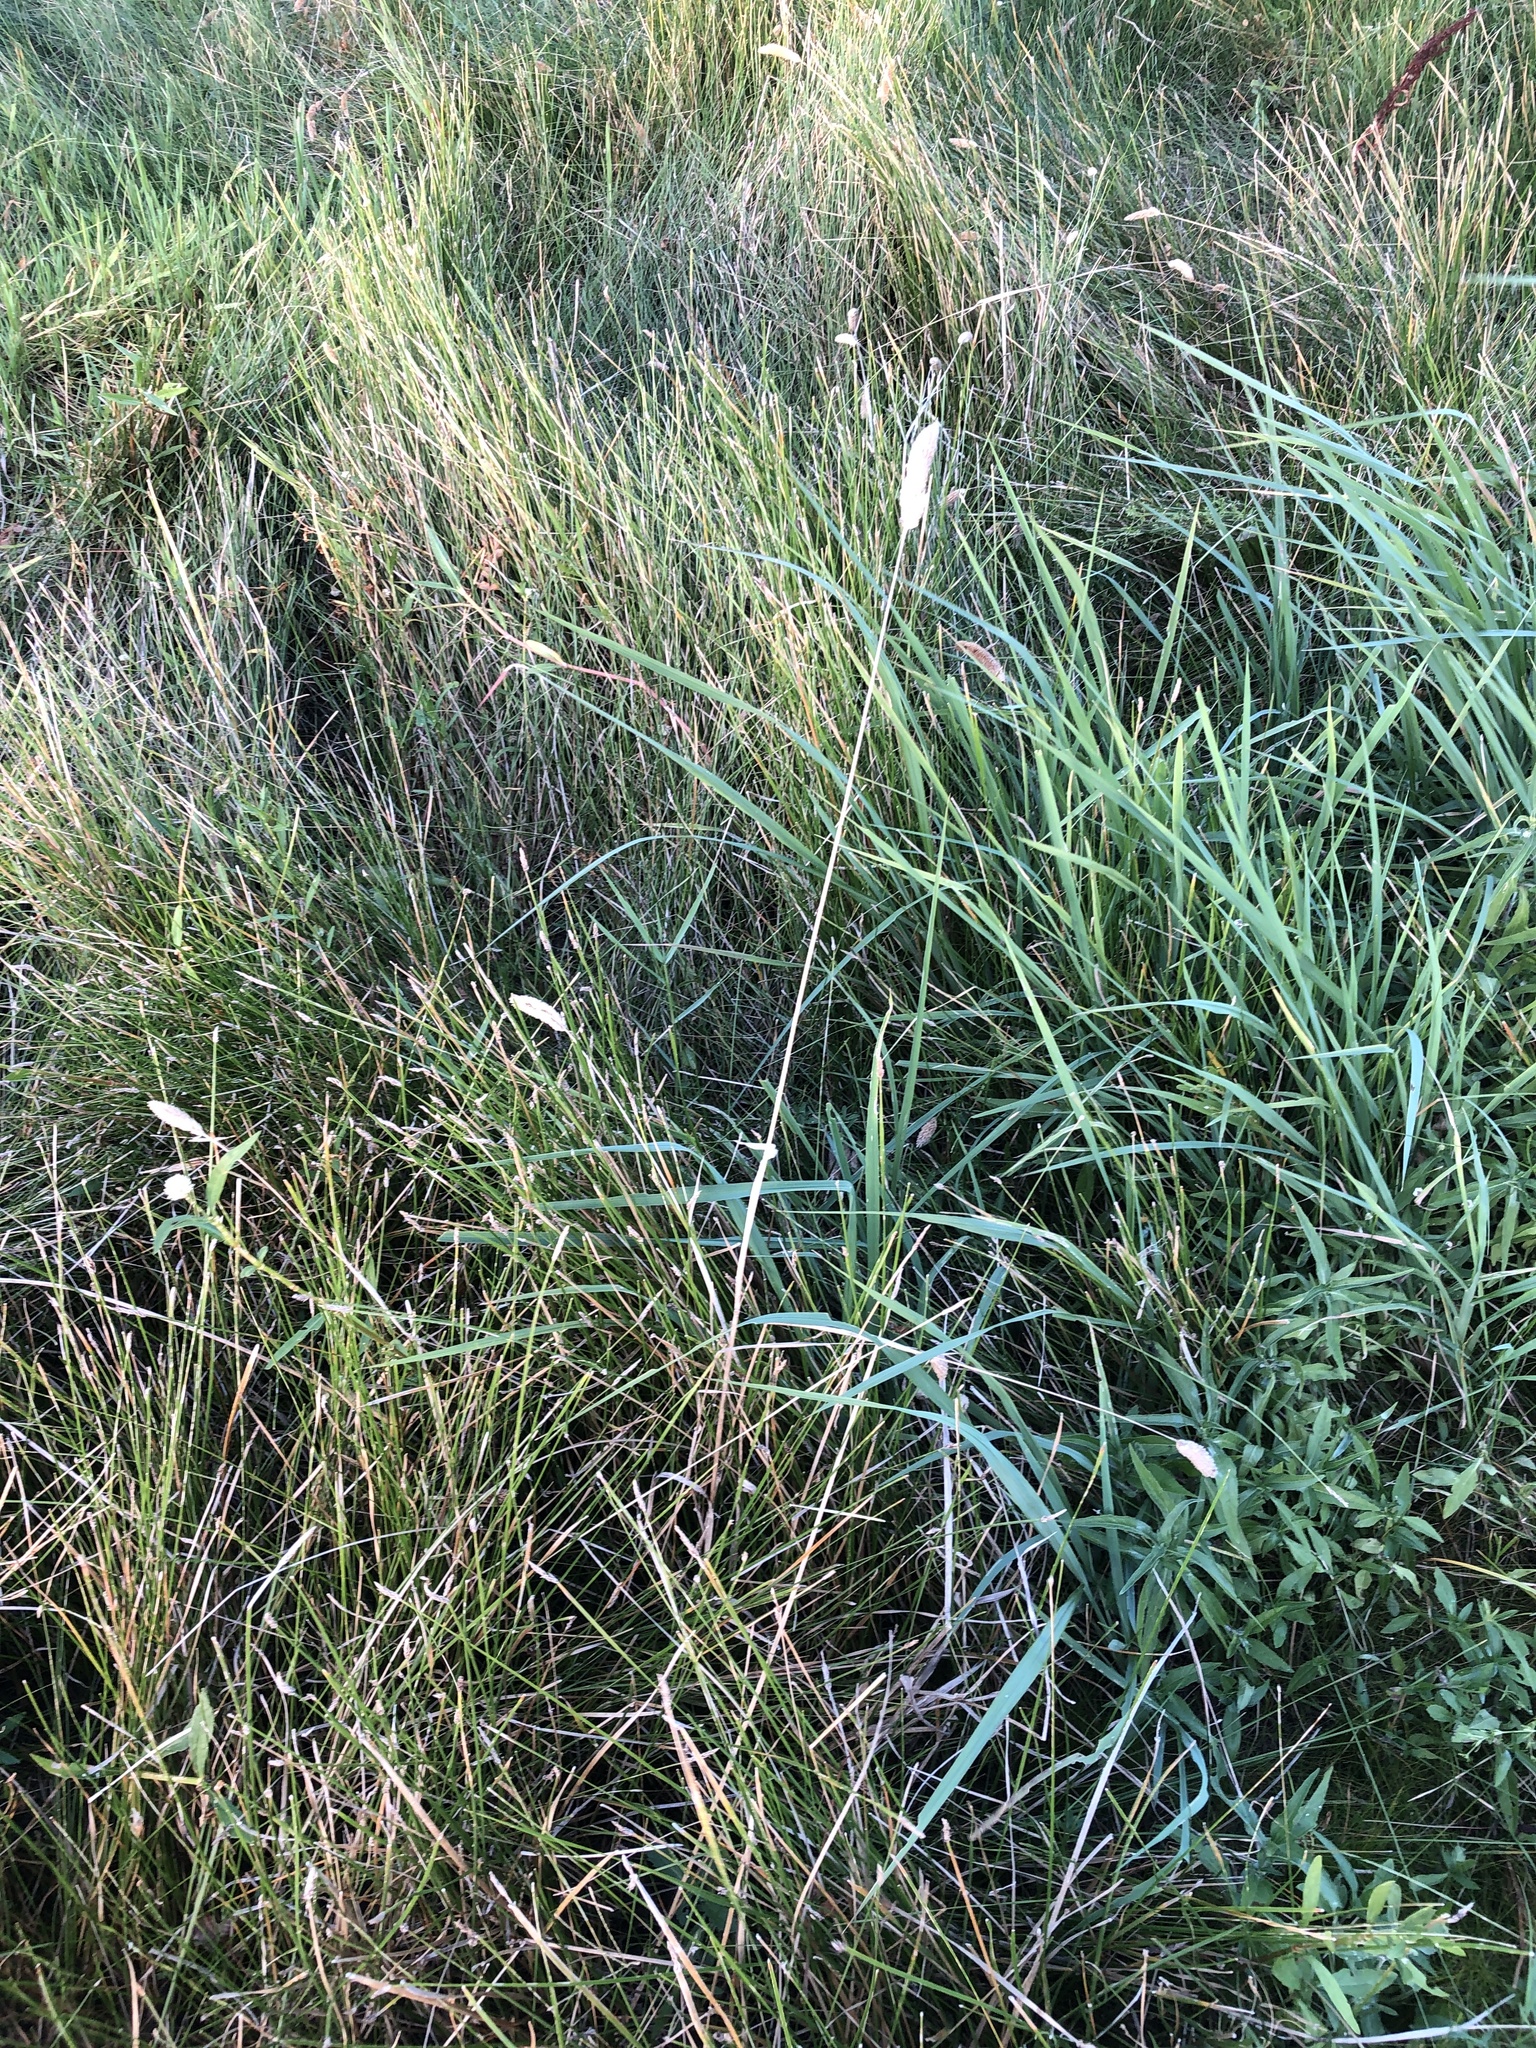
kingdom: Plantae
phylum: Tracheophyta
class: Liliopsida
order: Poales
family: Poaceae
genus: Phalaris
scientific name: Phalaris caroliniana
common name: May grass
